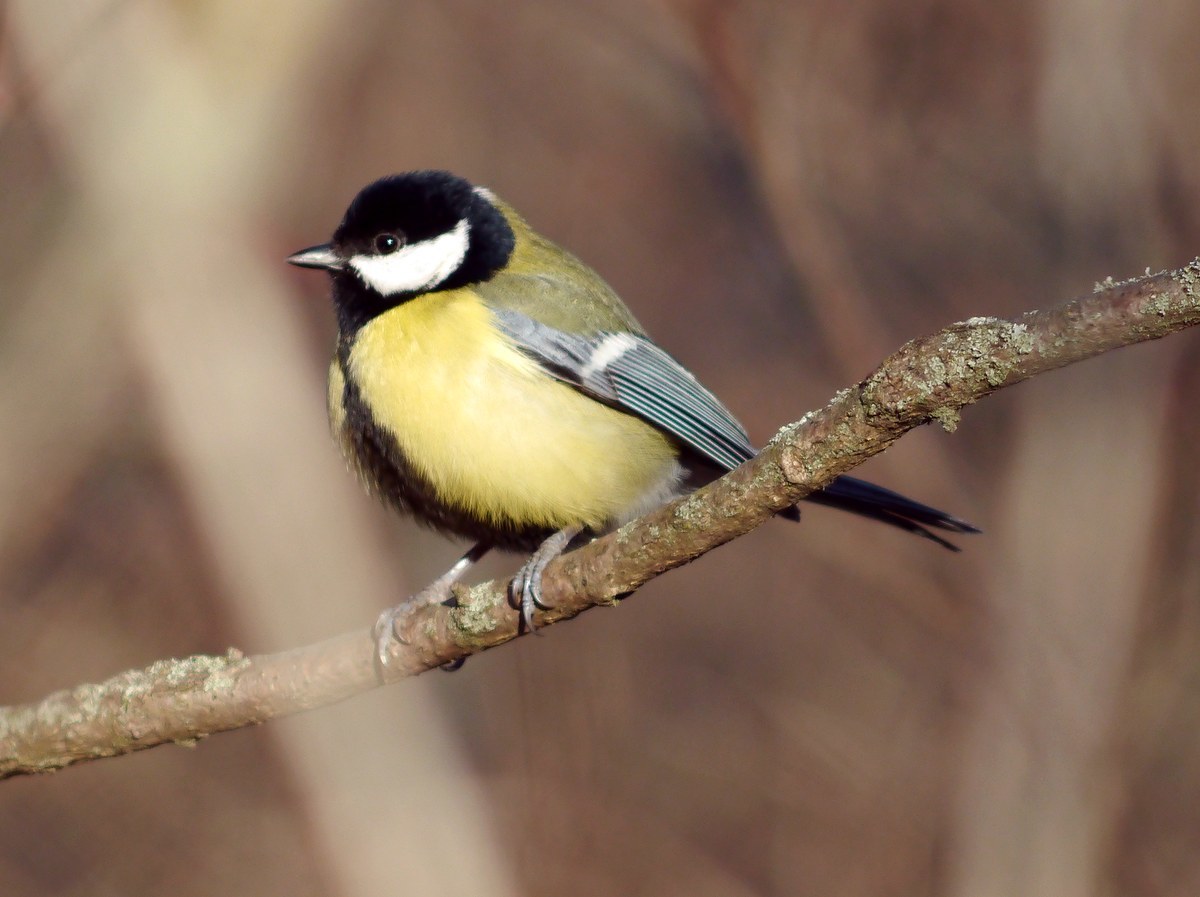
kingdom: Animalia
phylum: Chordata
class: Aves
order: Passeriformes
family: Paridae
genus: Parus
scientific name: Parus major
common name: Great tit
